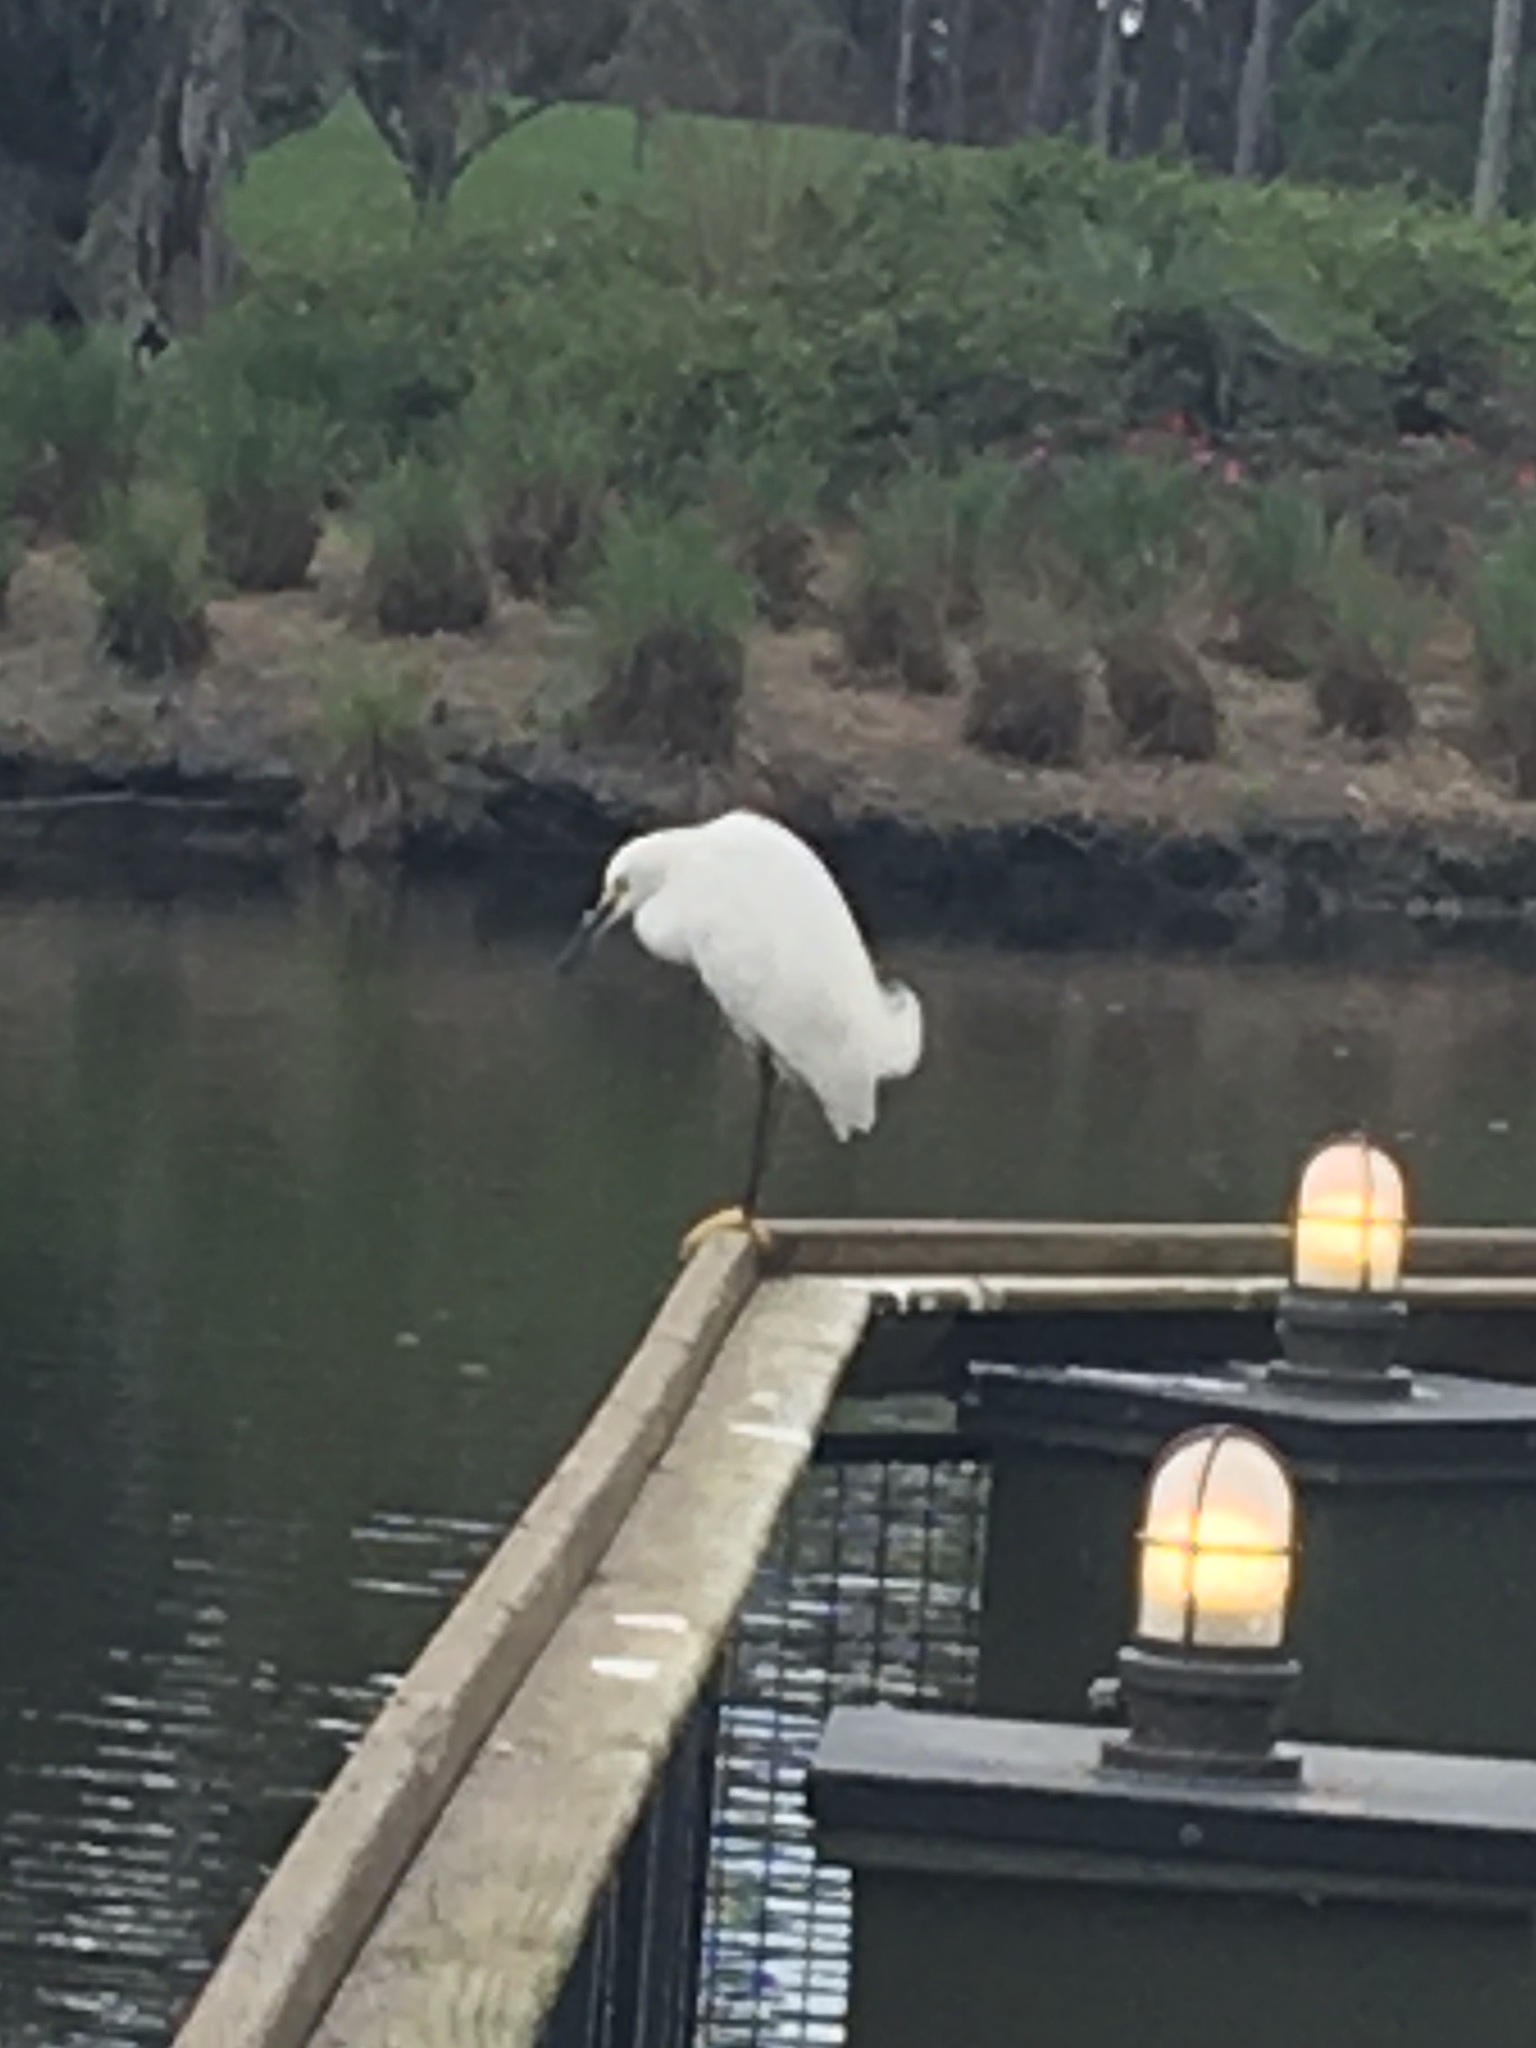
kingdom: Animalia
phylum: Chordata
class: Aves
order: Pelecaniformes
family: Ardeidae
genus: Egretta
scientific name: Egretta thula
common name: Snowy egret
